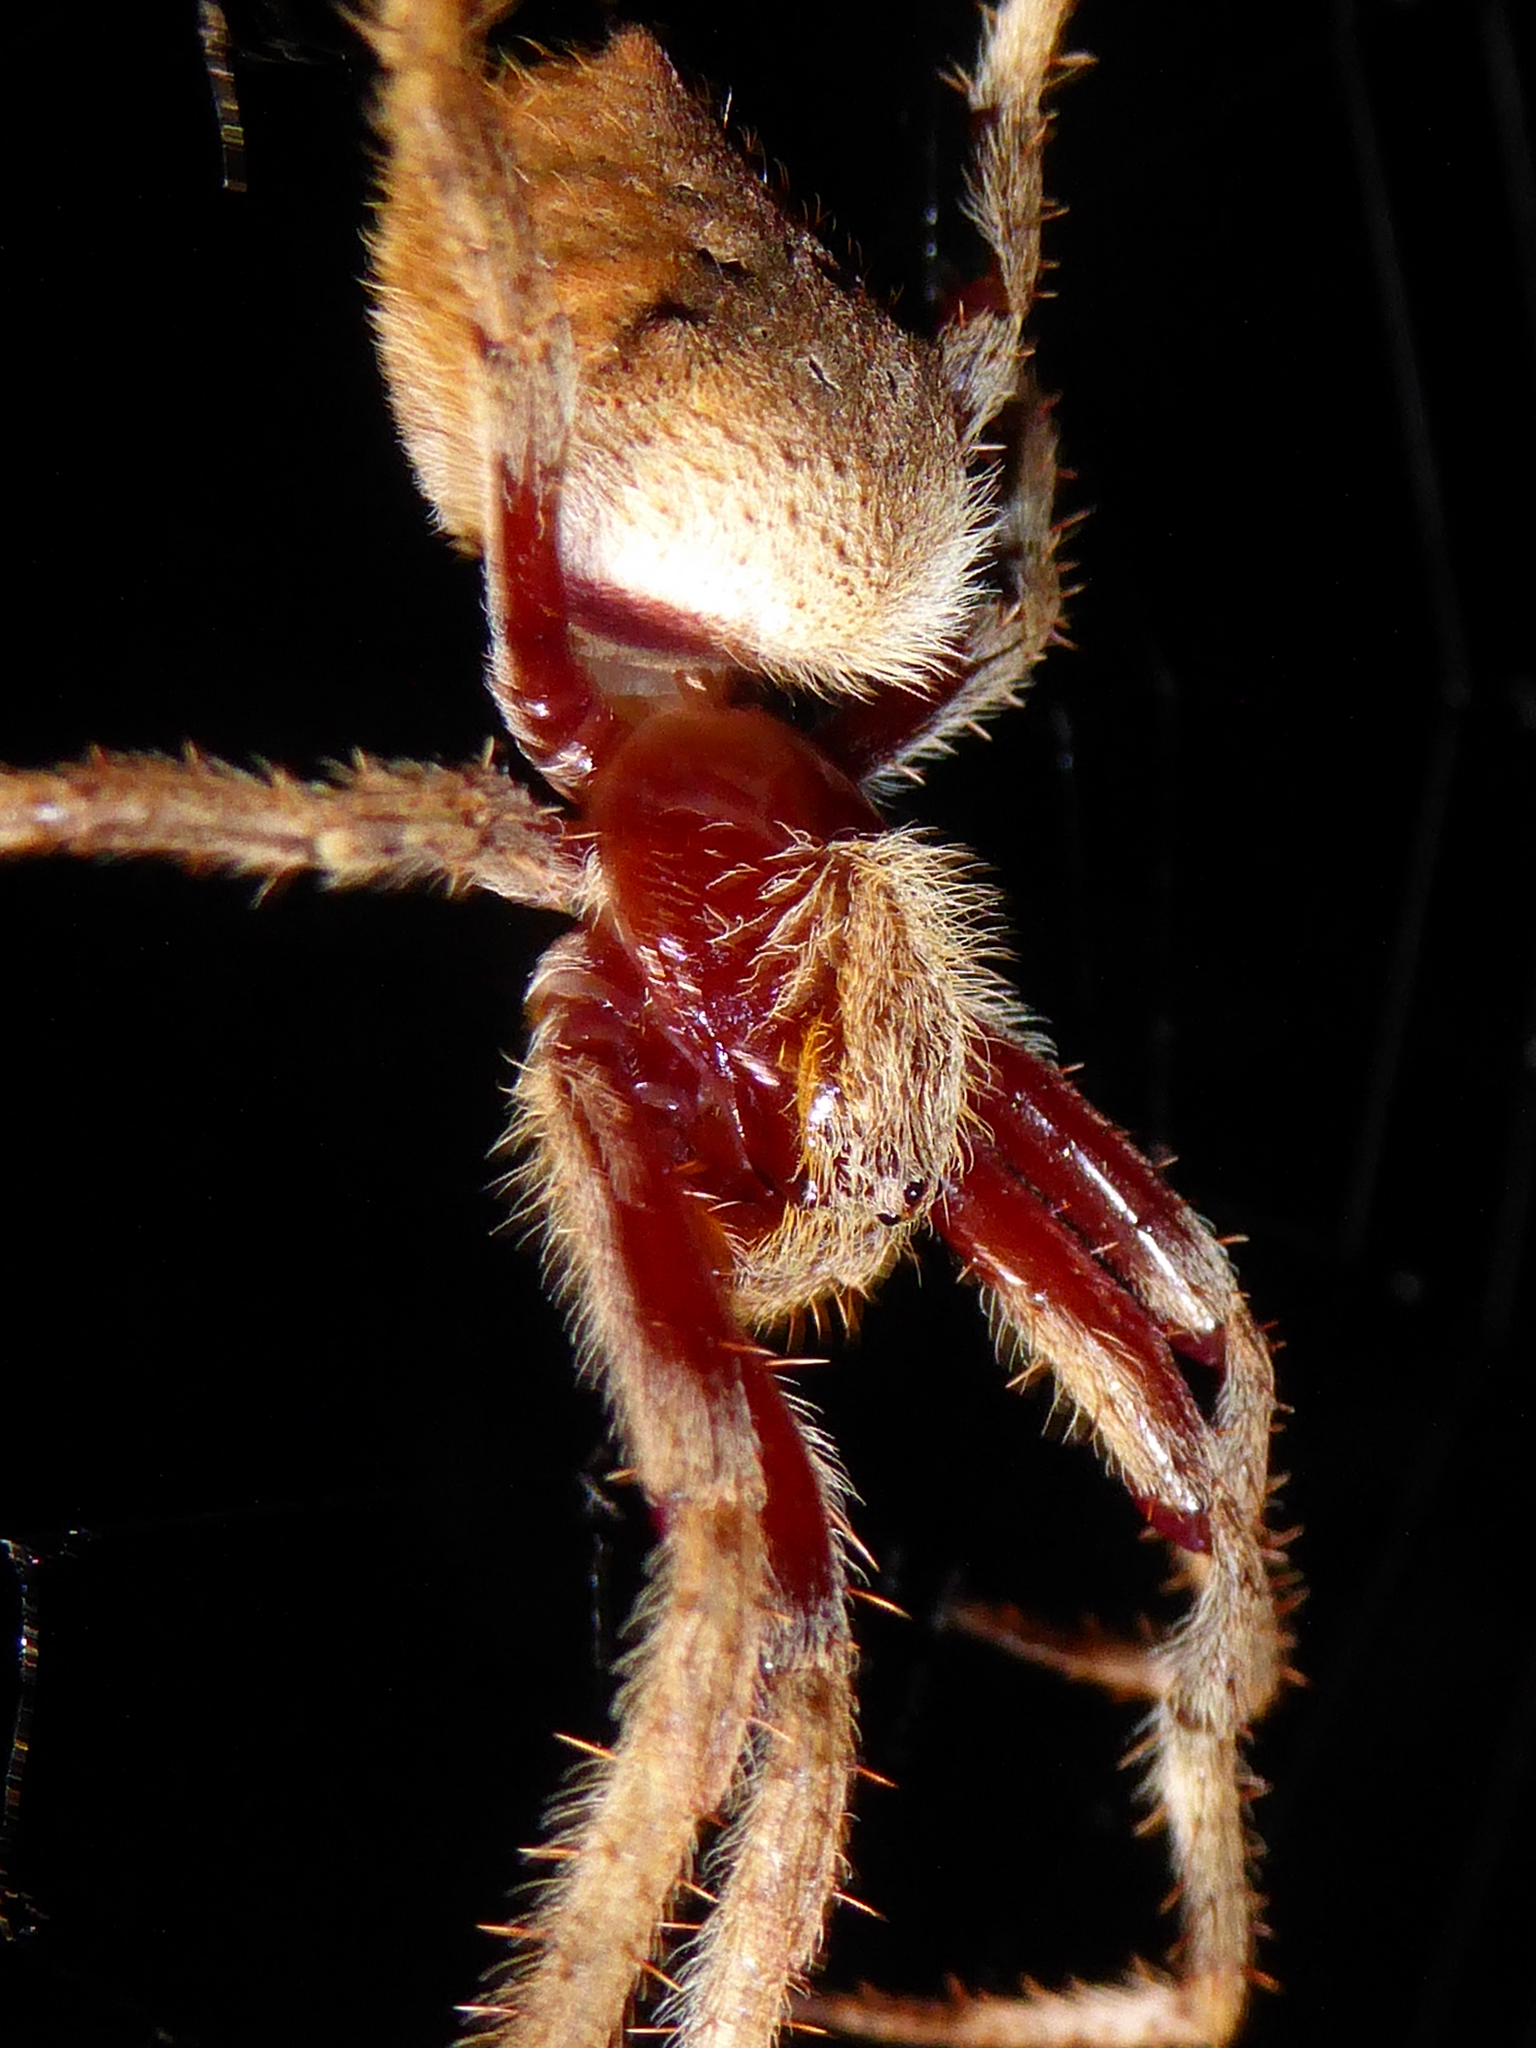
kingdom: Animalia
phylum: Arthropoda
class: Arachnida
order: Araneae
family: Araneidae
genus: Hortophora
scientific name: Hortophora transmarina
